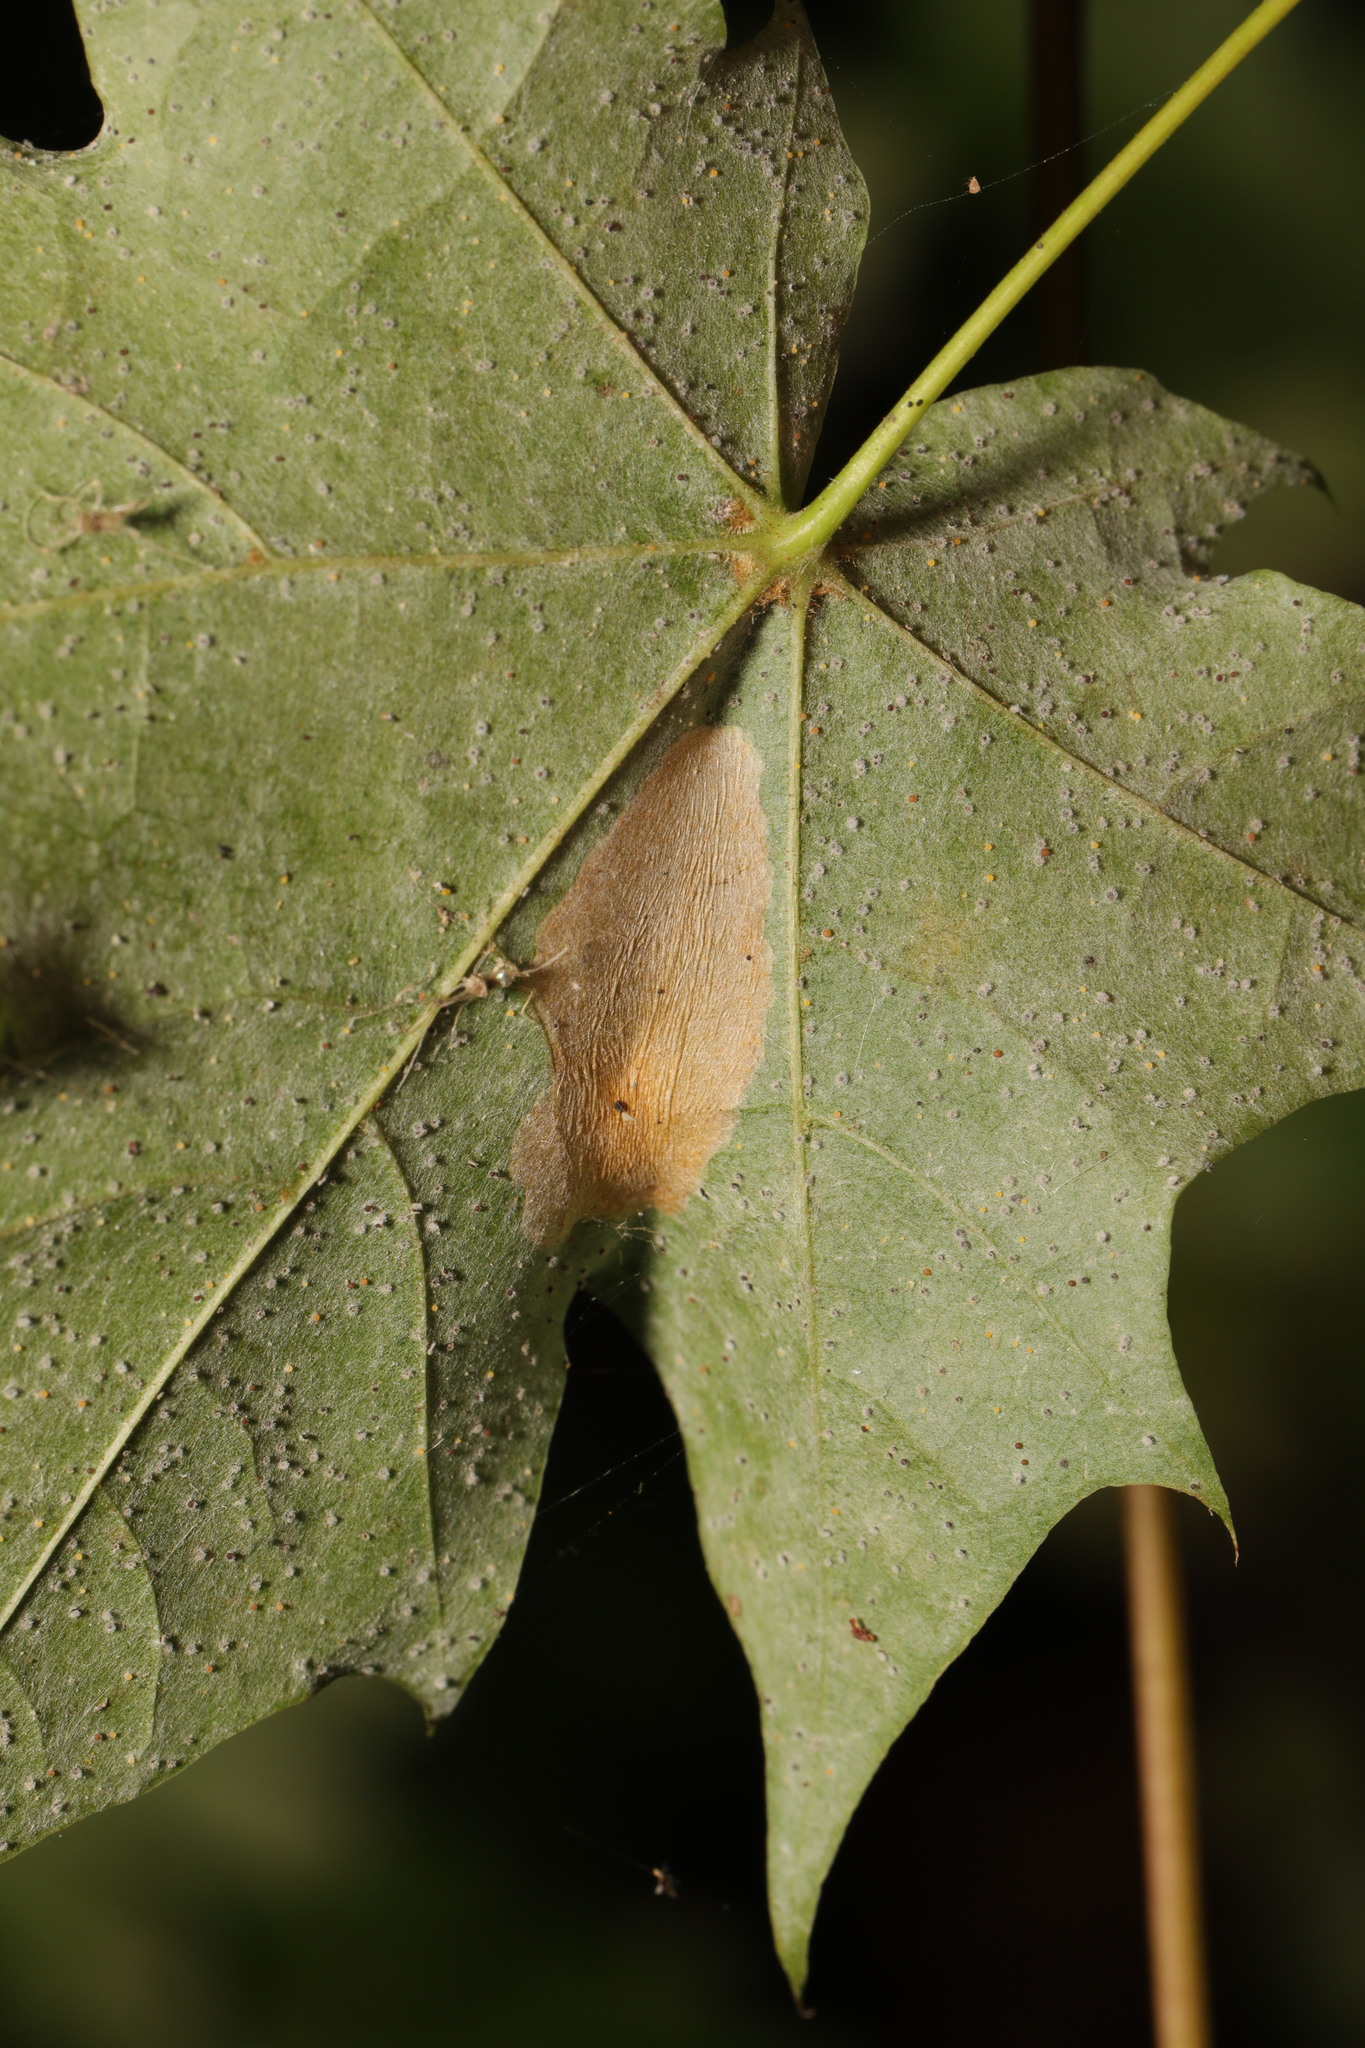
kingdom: Animalia
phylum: Arthropoda
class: Insecta
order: Lepidoptera
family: Gracillariidae
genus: Phyllonorycter
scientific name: Phyllonorycter joannisi
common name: White-bodied midget
